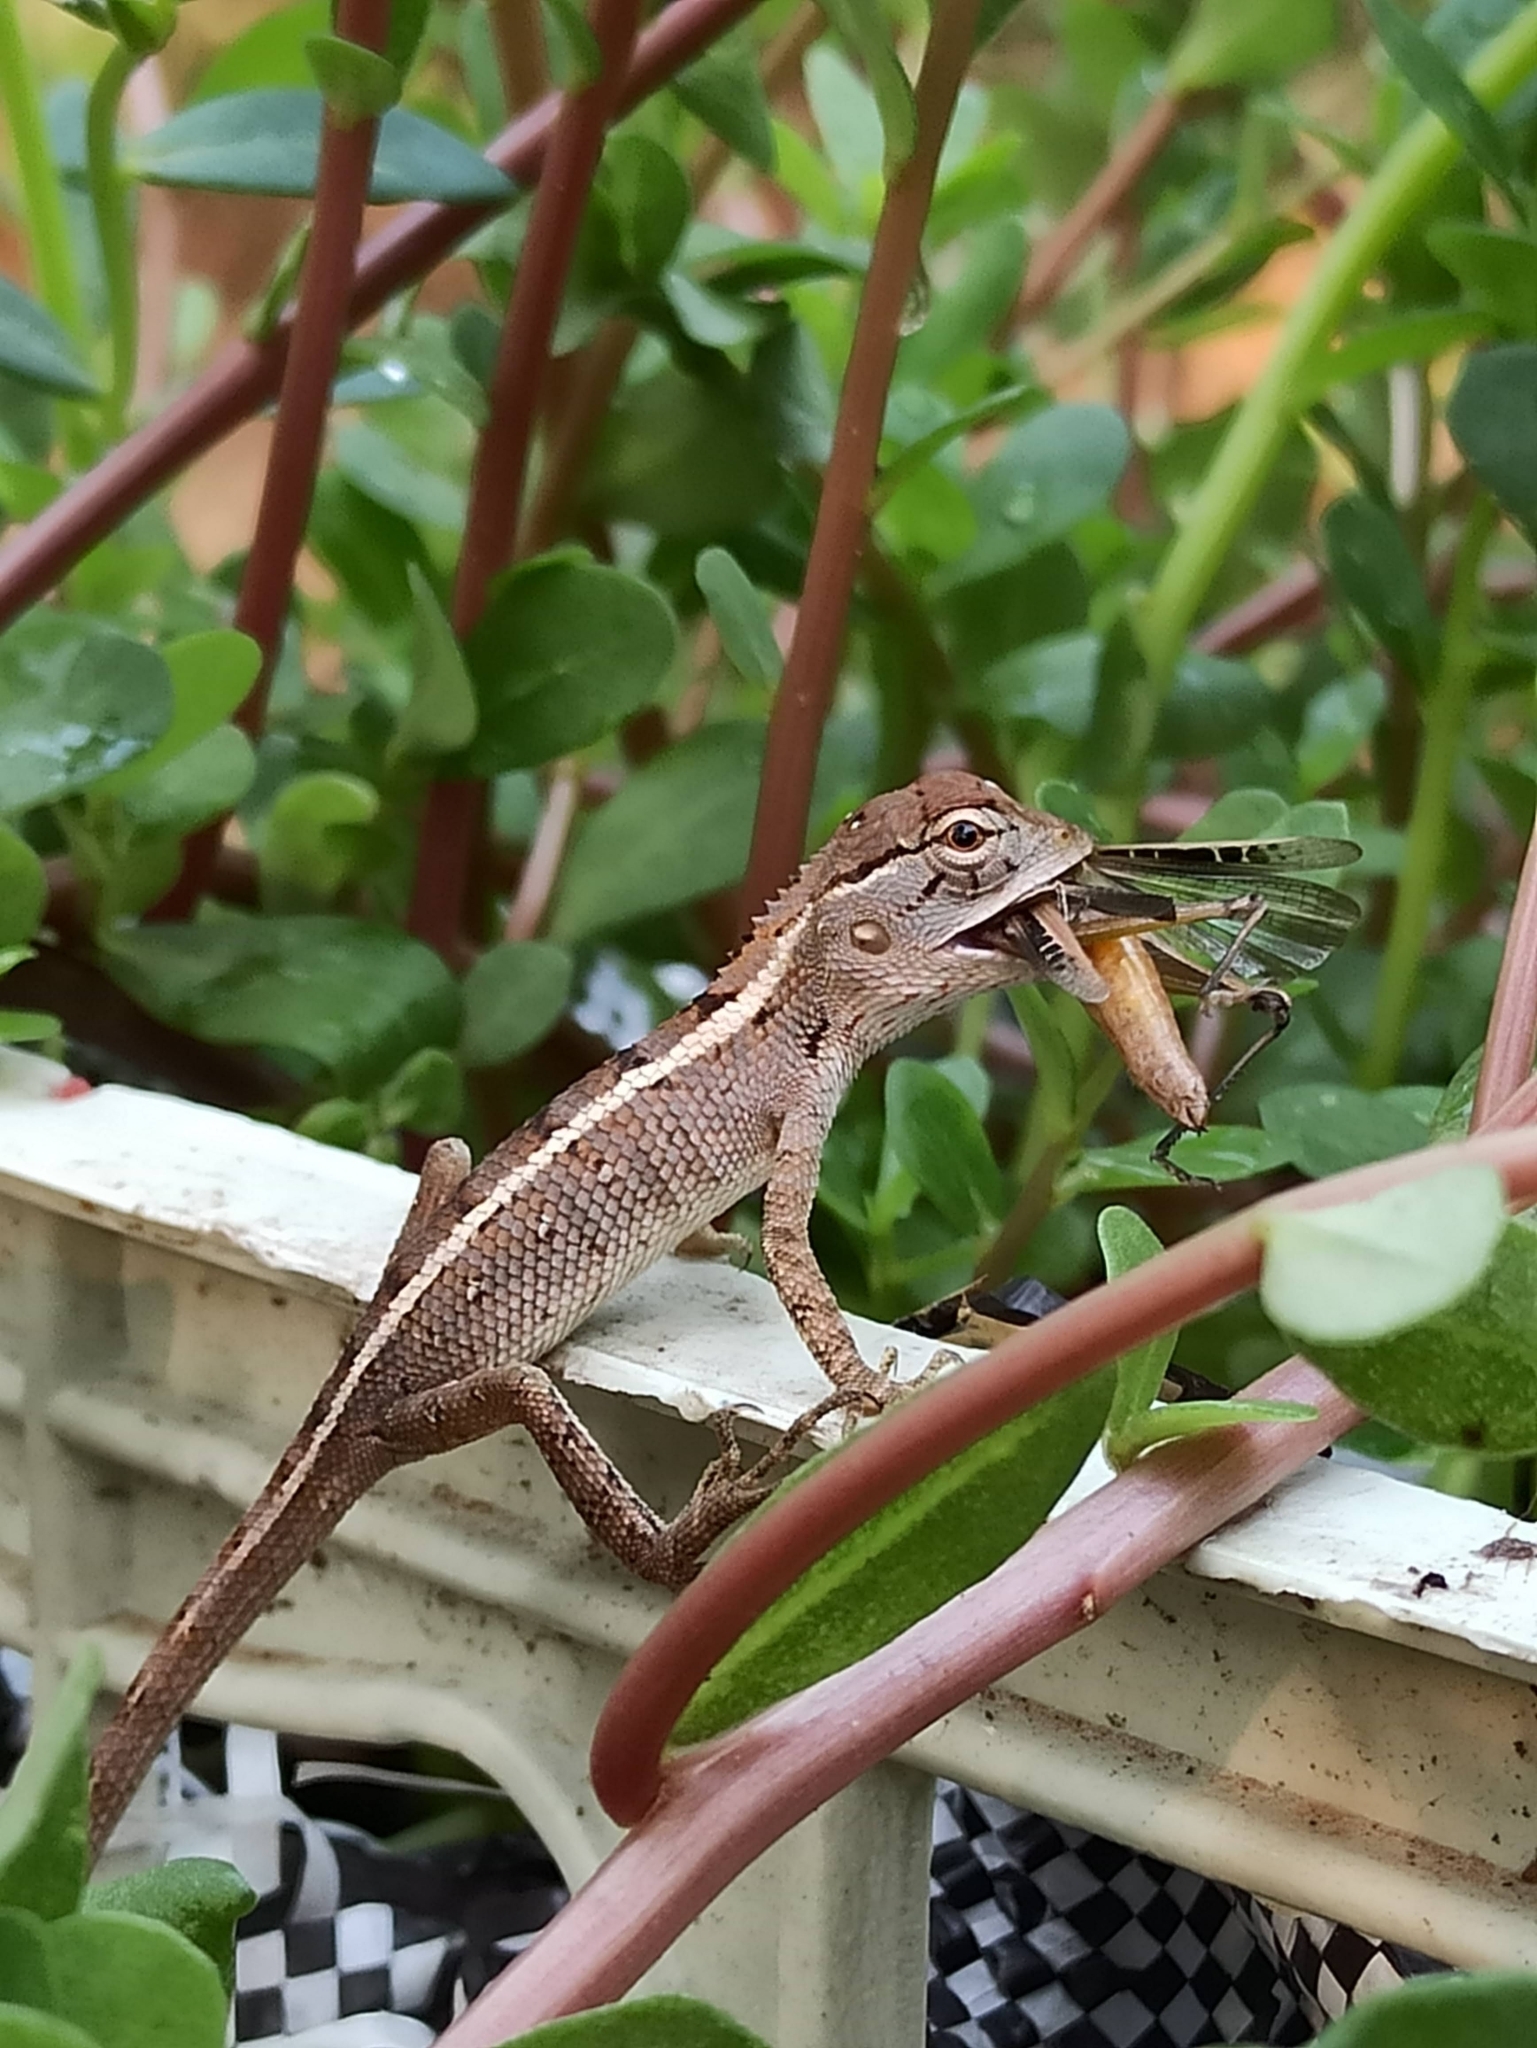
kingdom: Animalia
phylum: Chordata
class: Squamata
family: Agamidae
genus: Calotes
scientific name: Calotes versicolor
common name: Oriental garden lizard
